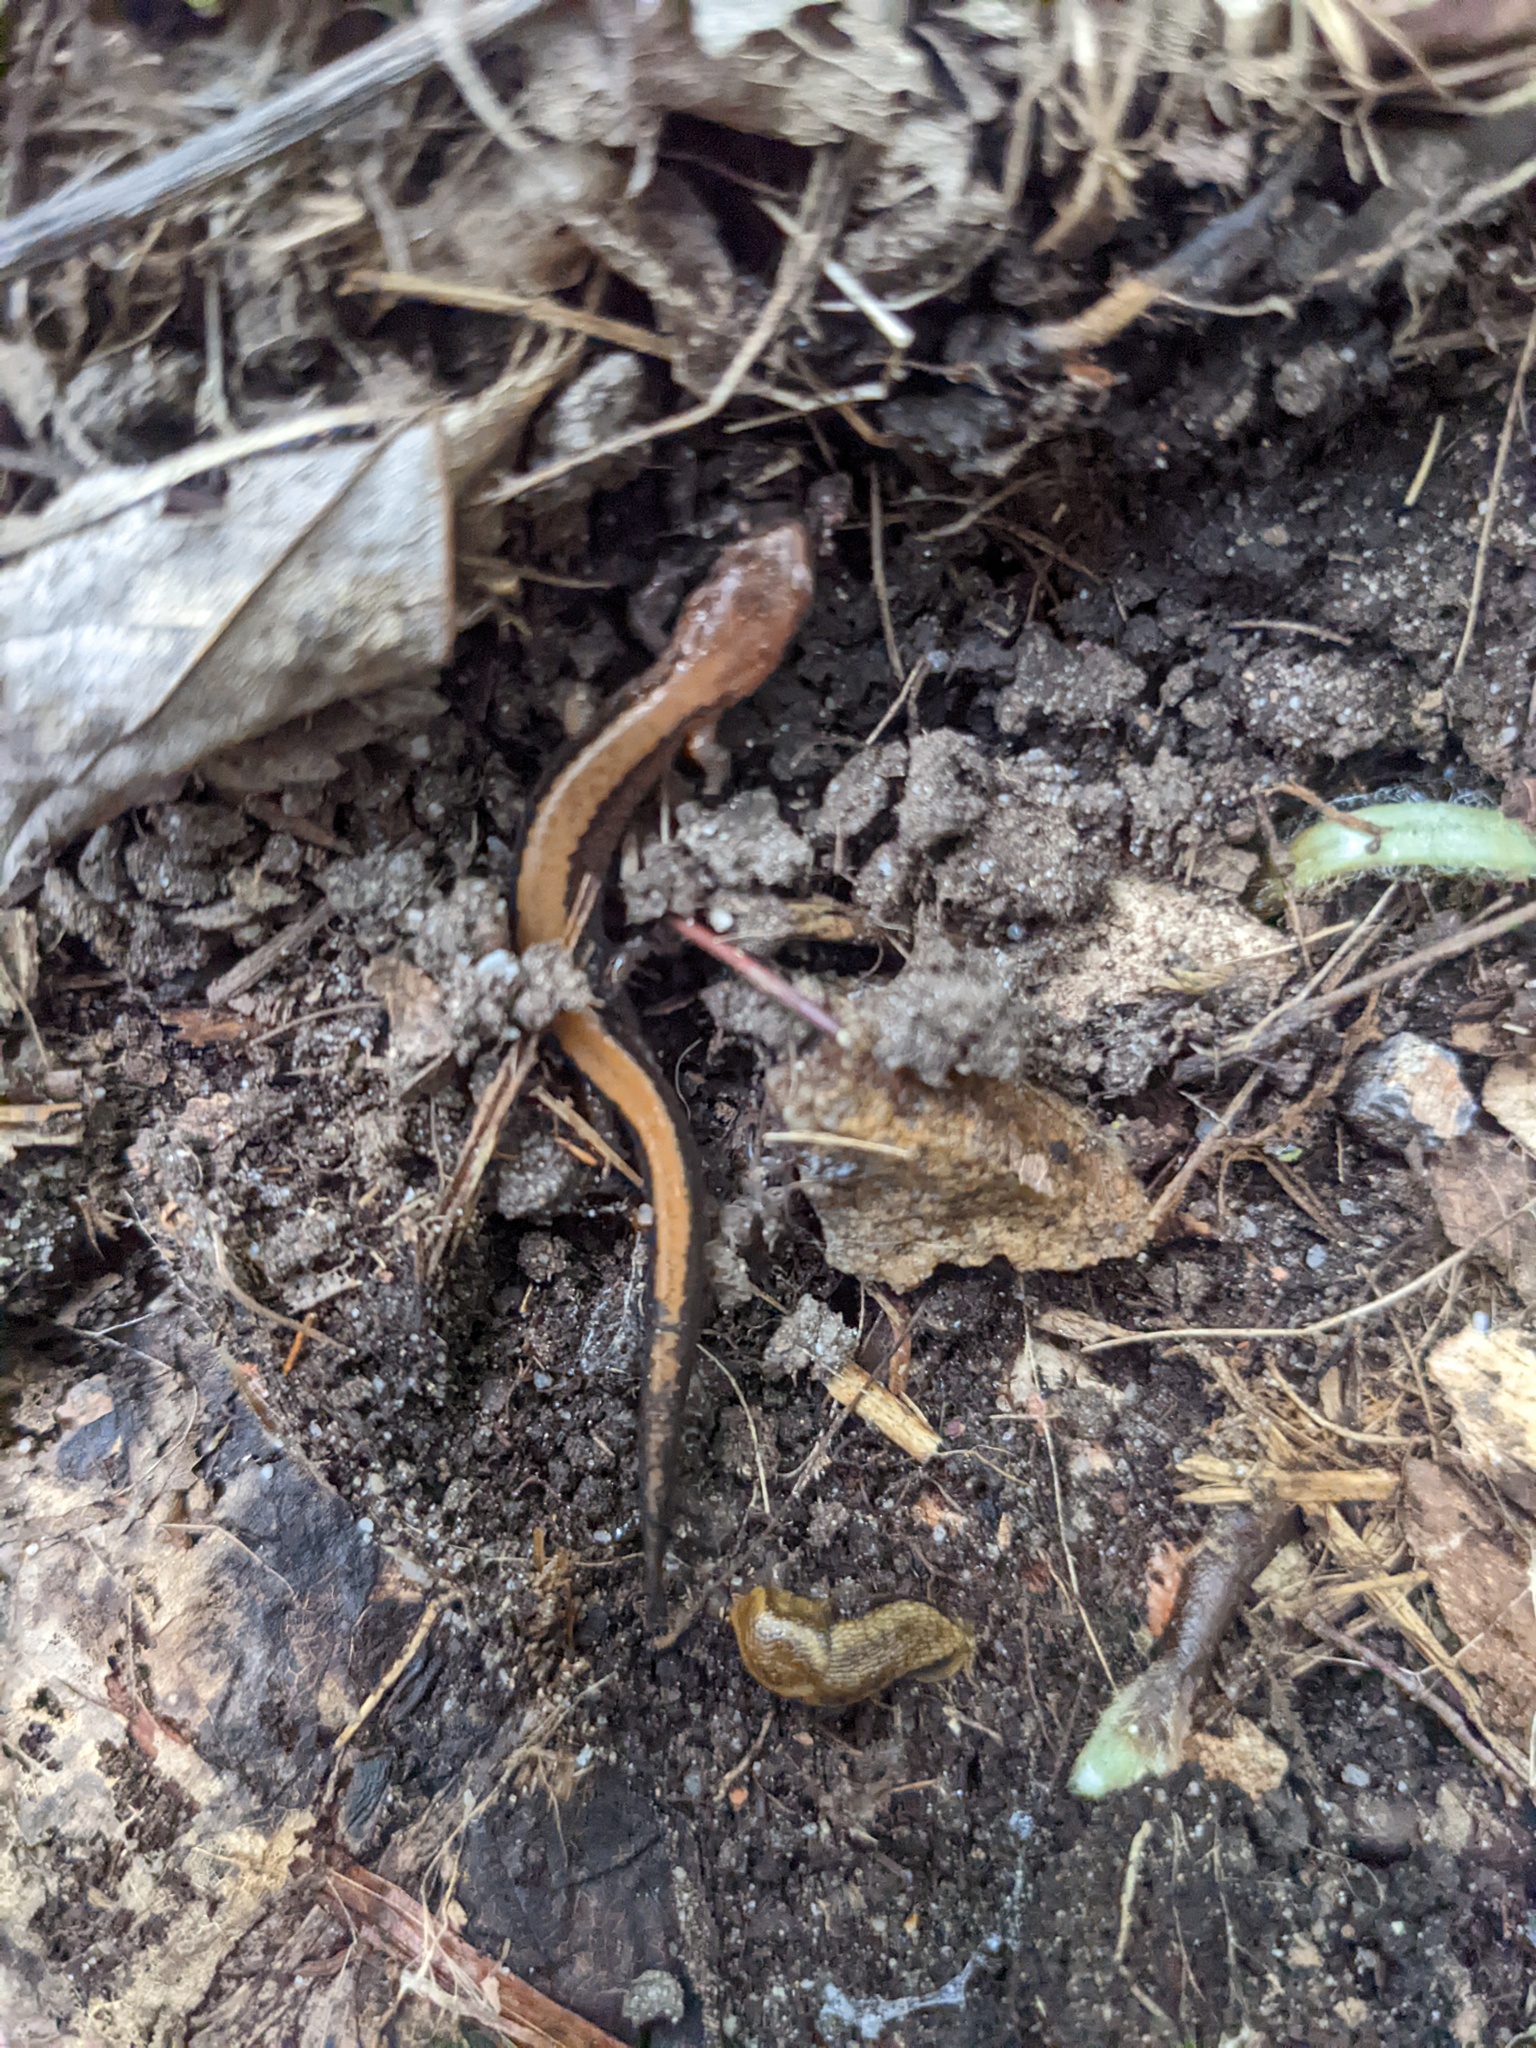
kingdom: Animalia
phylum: Chordata
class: Amphibia
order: Caudata
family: Plethodontidae
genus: Plethodon
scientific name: Plethodon cinereus
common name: Redback salamander
